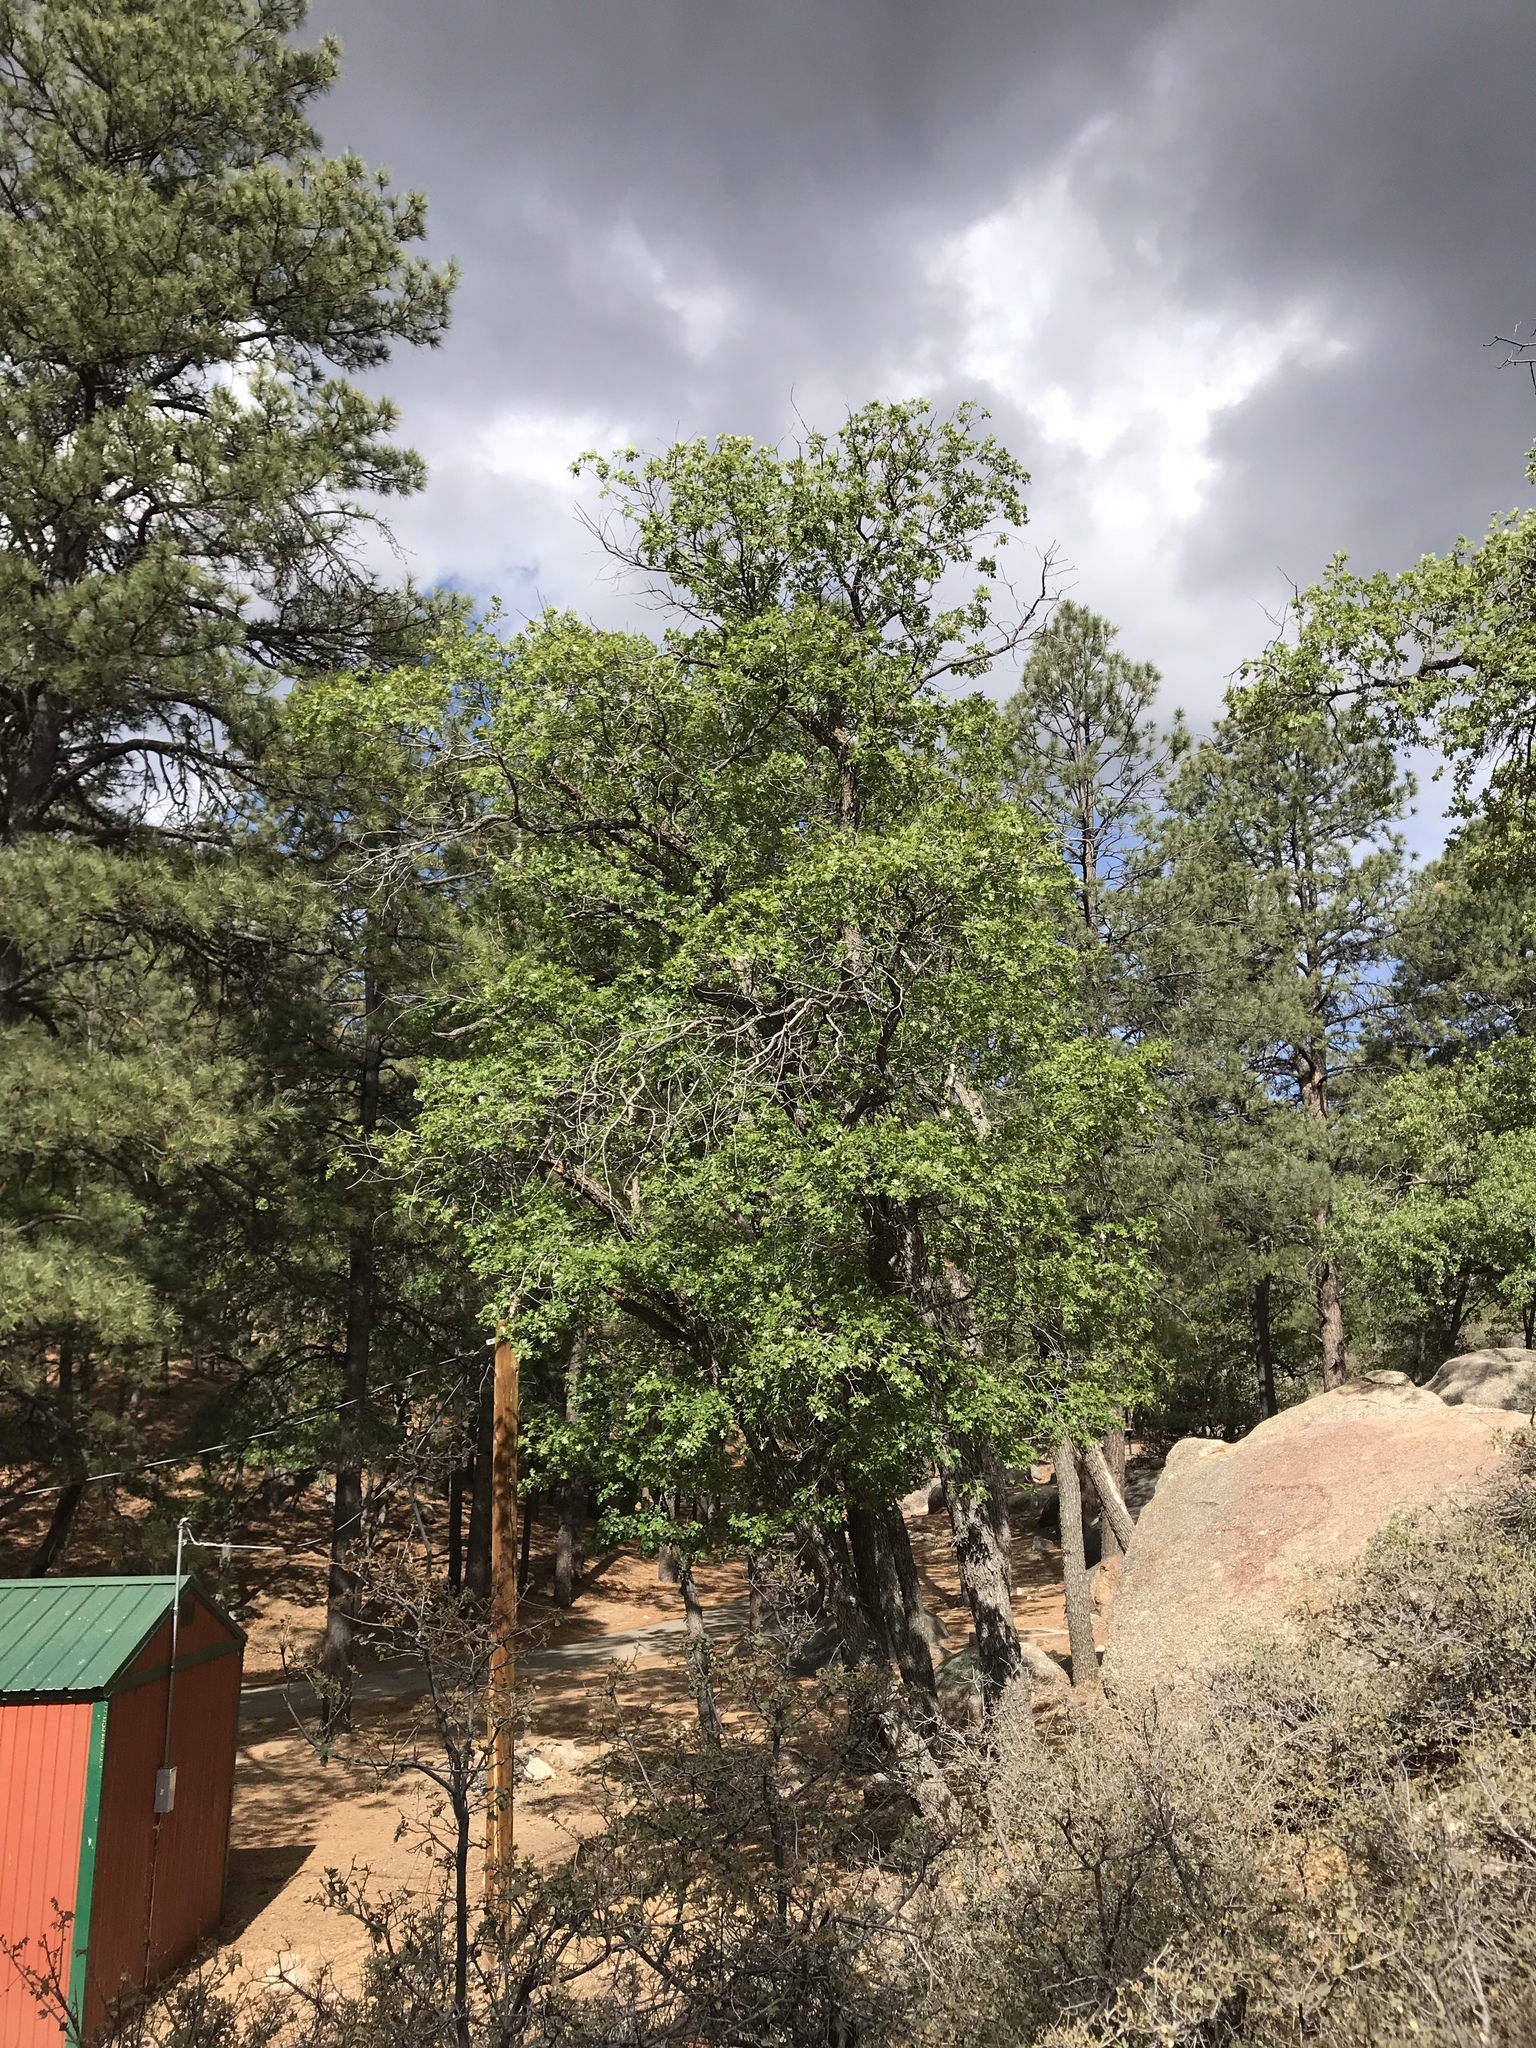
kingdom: Plantae
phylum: Tracheophyta
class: Magnoliopsida
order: Fagales
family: Fagaceae
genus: Quercus
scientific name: Quercus gambelii
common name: Gambel oak
